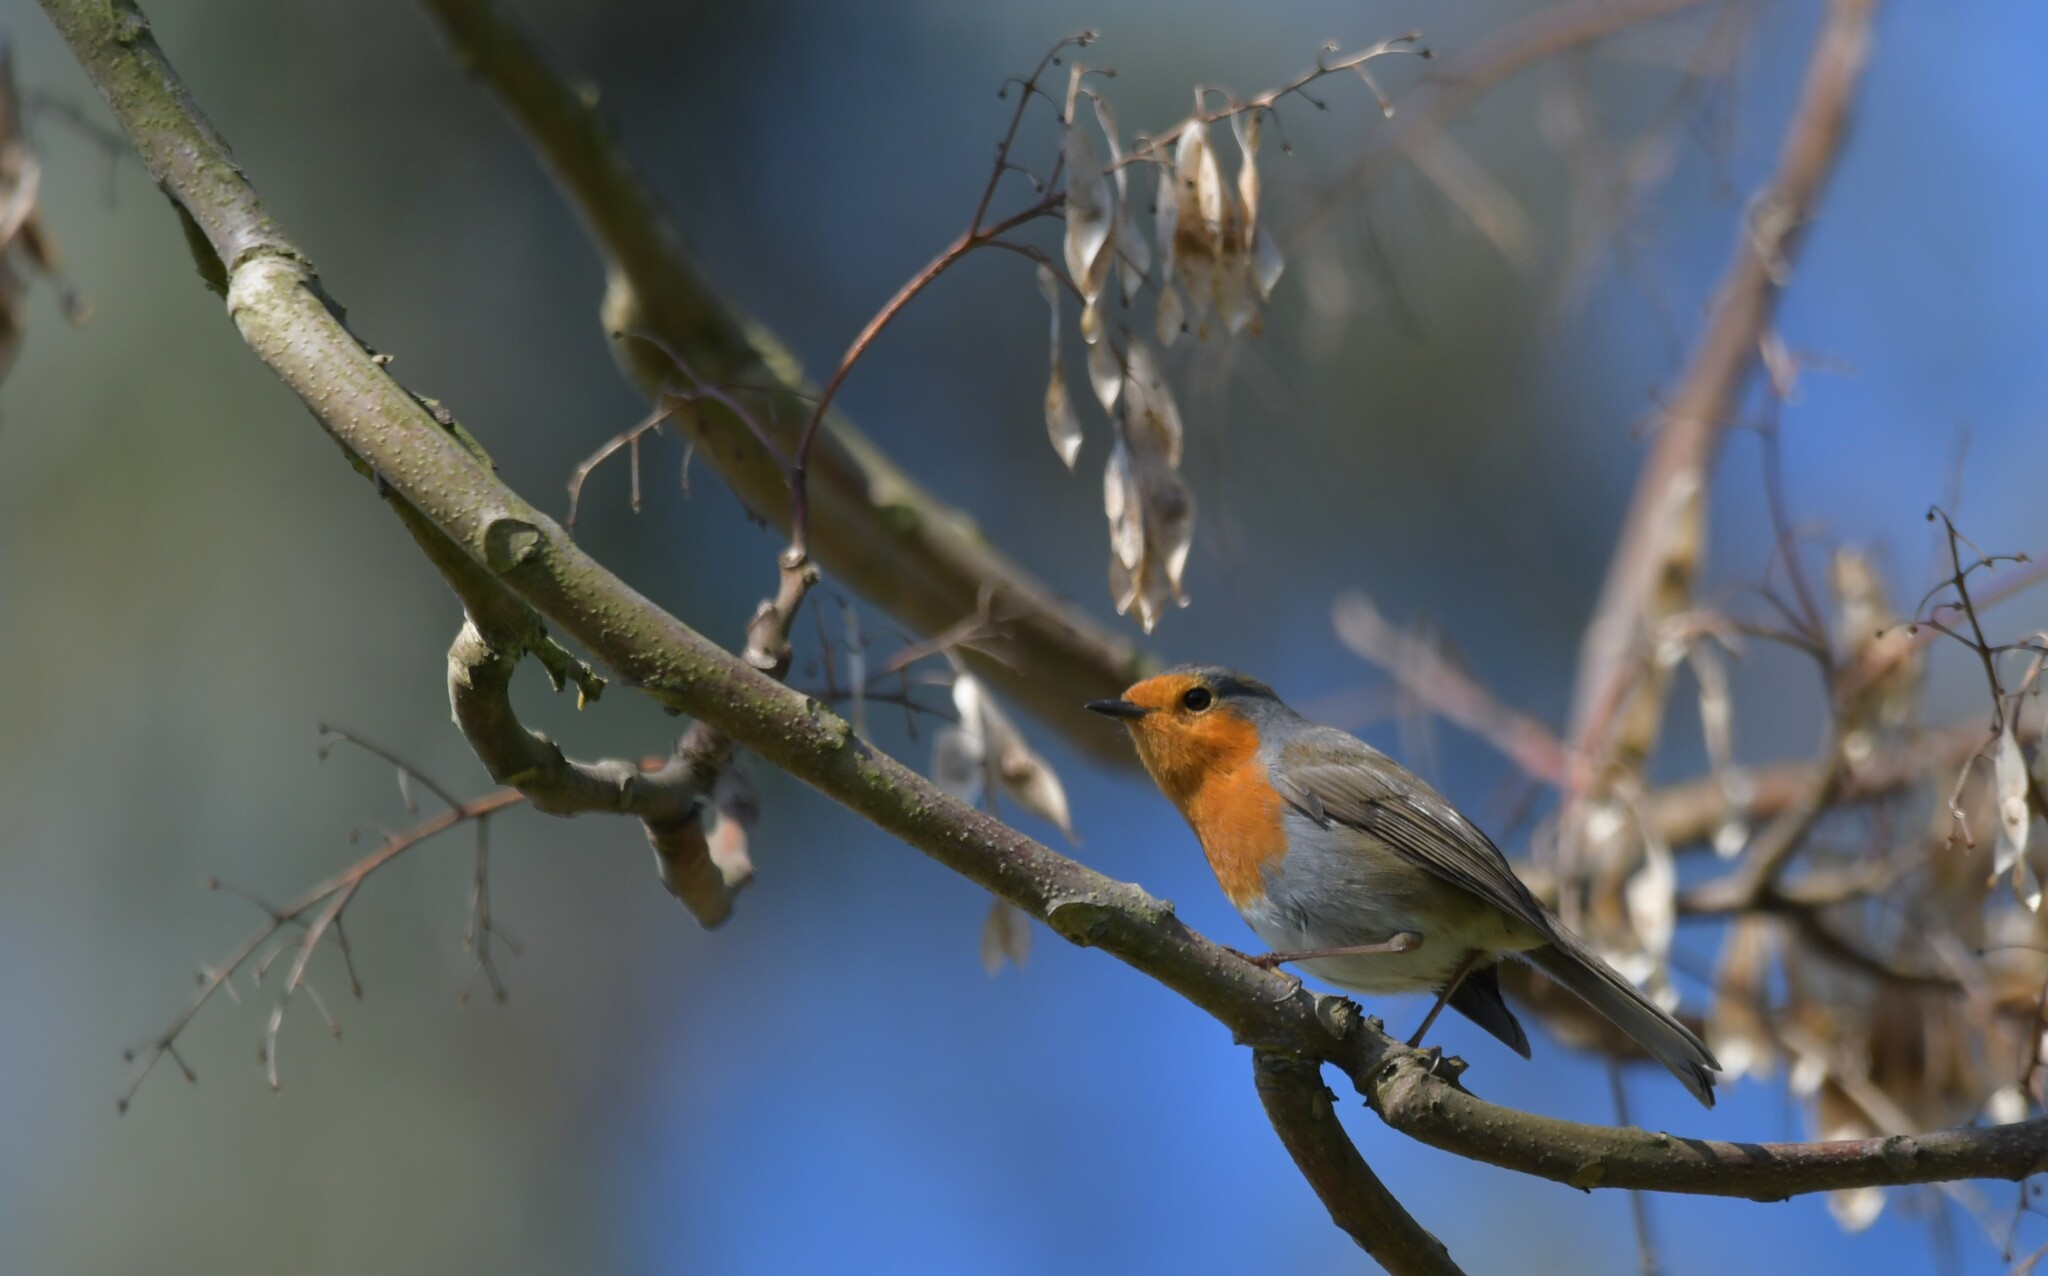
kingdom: Animalia
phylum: Chordata
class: Aves
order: Passeriformes
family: Muscicapidae
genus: Erithacus
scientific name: Erithacus rubecula
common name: European robin
